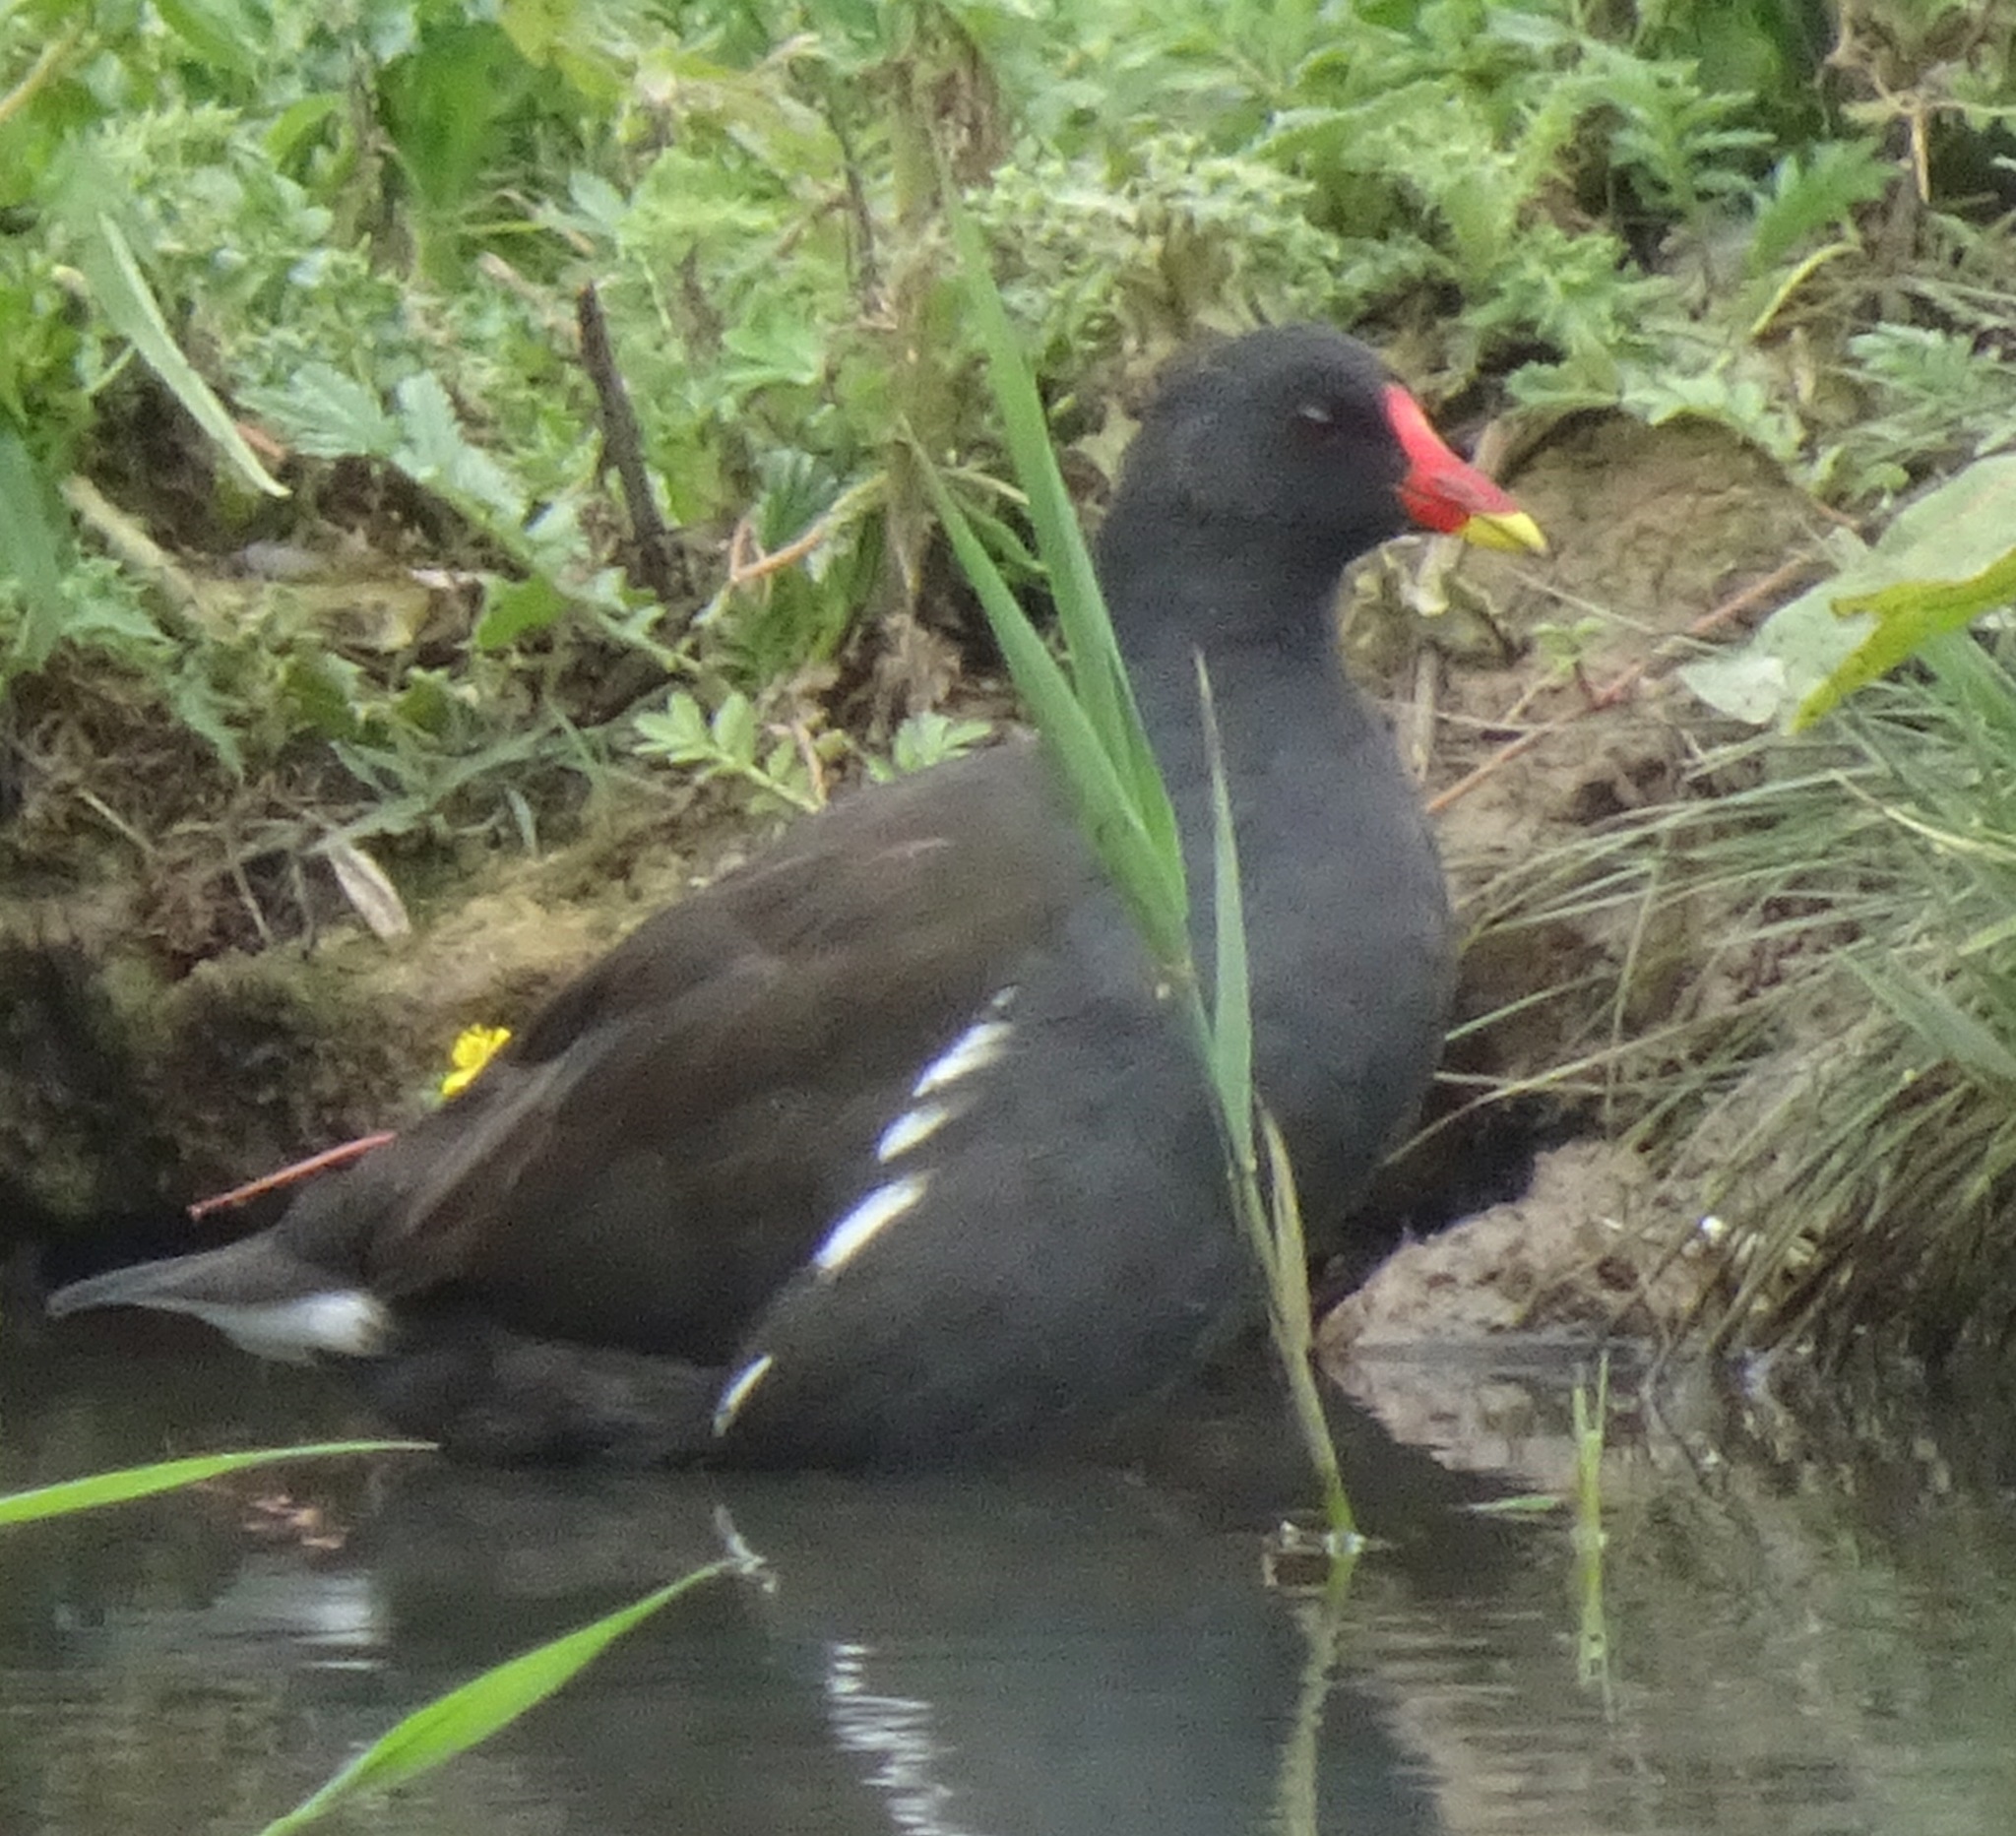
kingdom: Animalia
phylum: Chordata
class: Aves
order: Gruiformes
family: Rallidae
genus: Gallinula
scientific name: Gallinula chloropus
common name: Common moorhen
